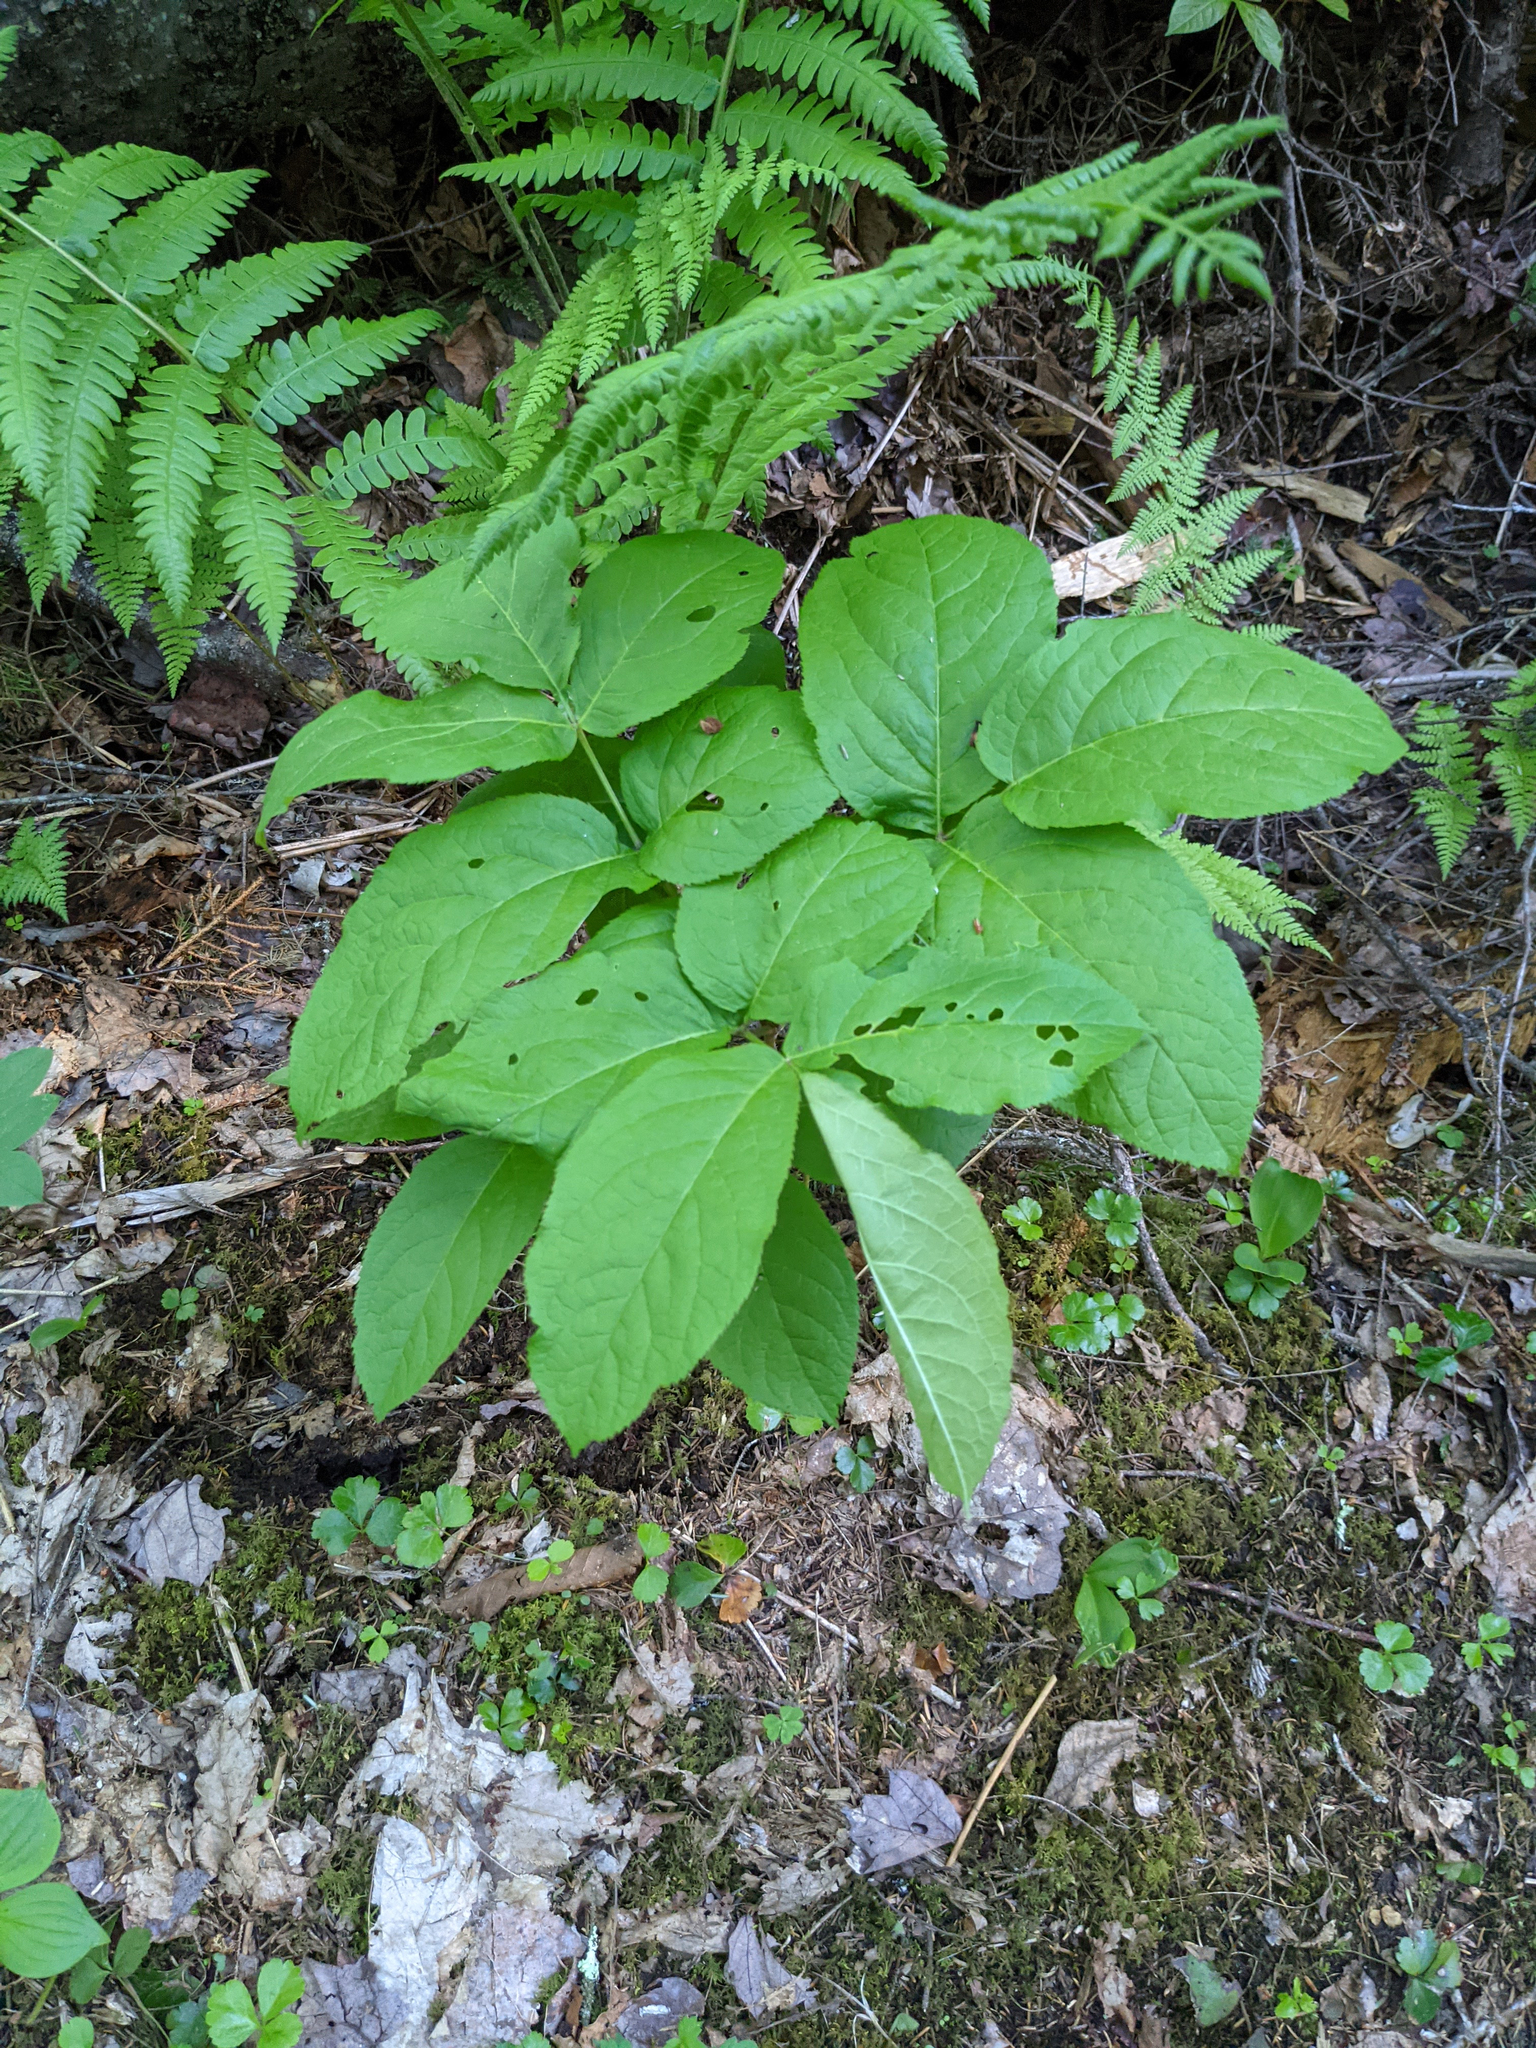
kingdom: Plantae
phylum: Tracheophyta
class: Magnoliopsida
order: Apiales
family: Araliaceae
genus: Aralia
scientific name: Aralia nudicaulis
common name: Wild sarsaparilla
